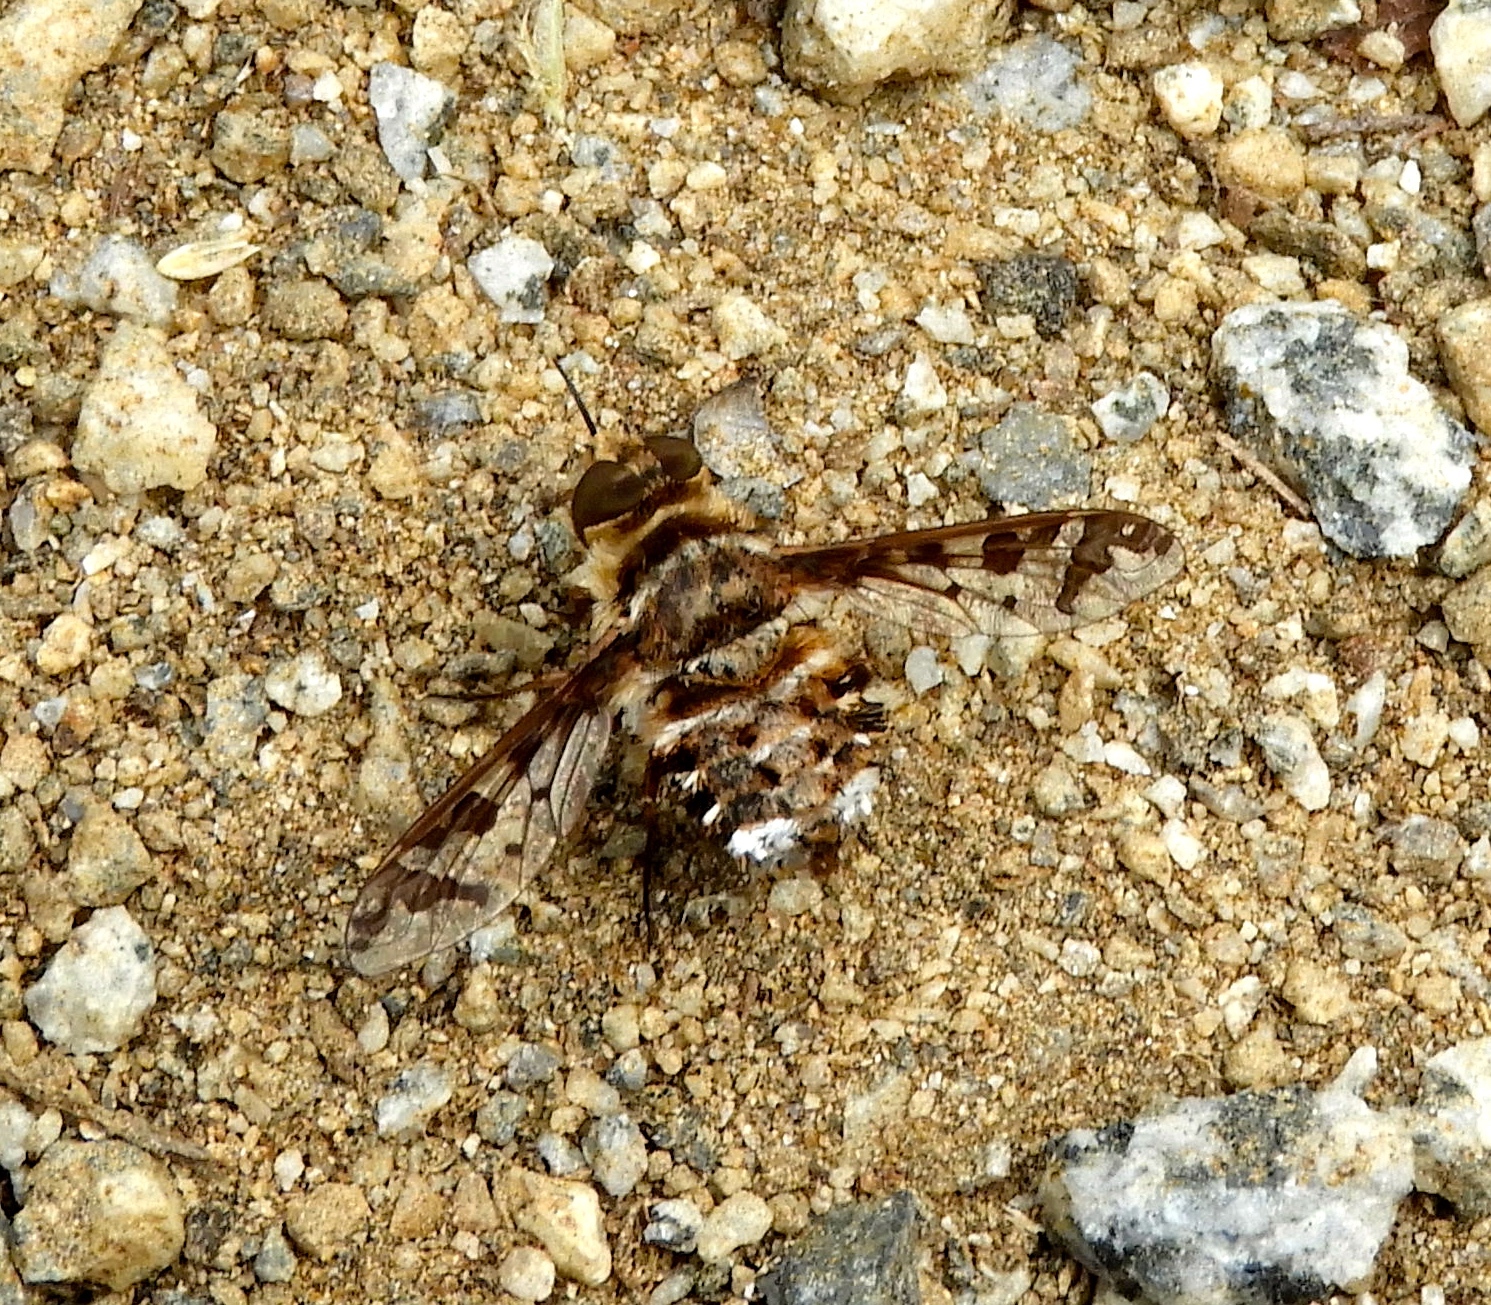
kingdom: Animalia
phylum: Arthropoda
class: Insecta
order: Diptera
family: Bombyliidae
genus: Lepidanthrax
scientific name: Lepidanthrax
